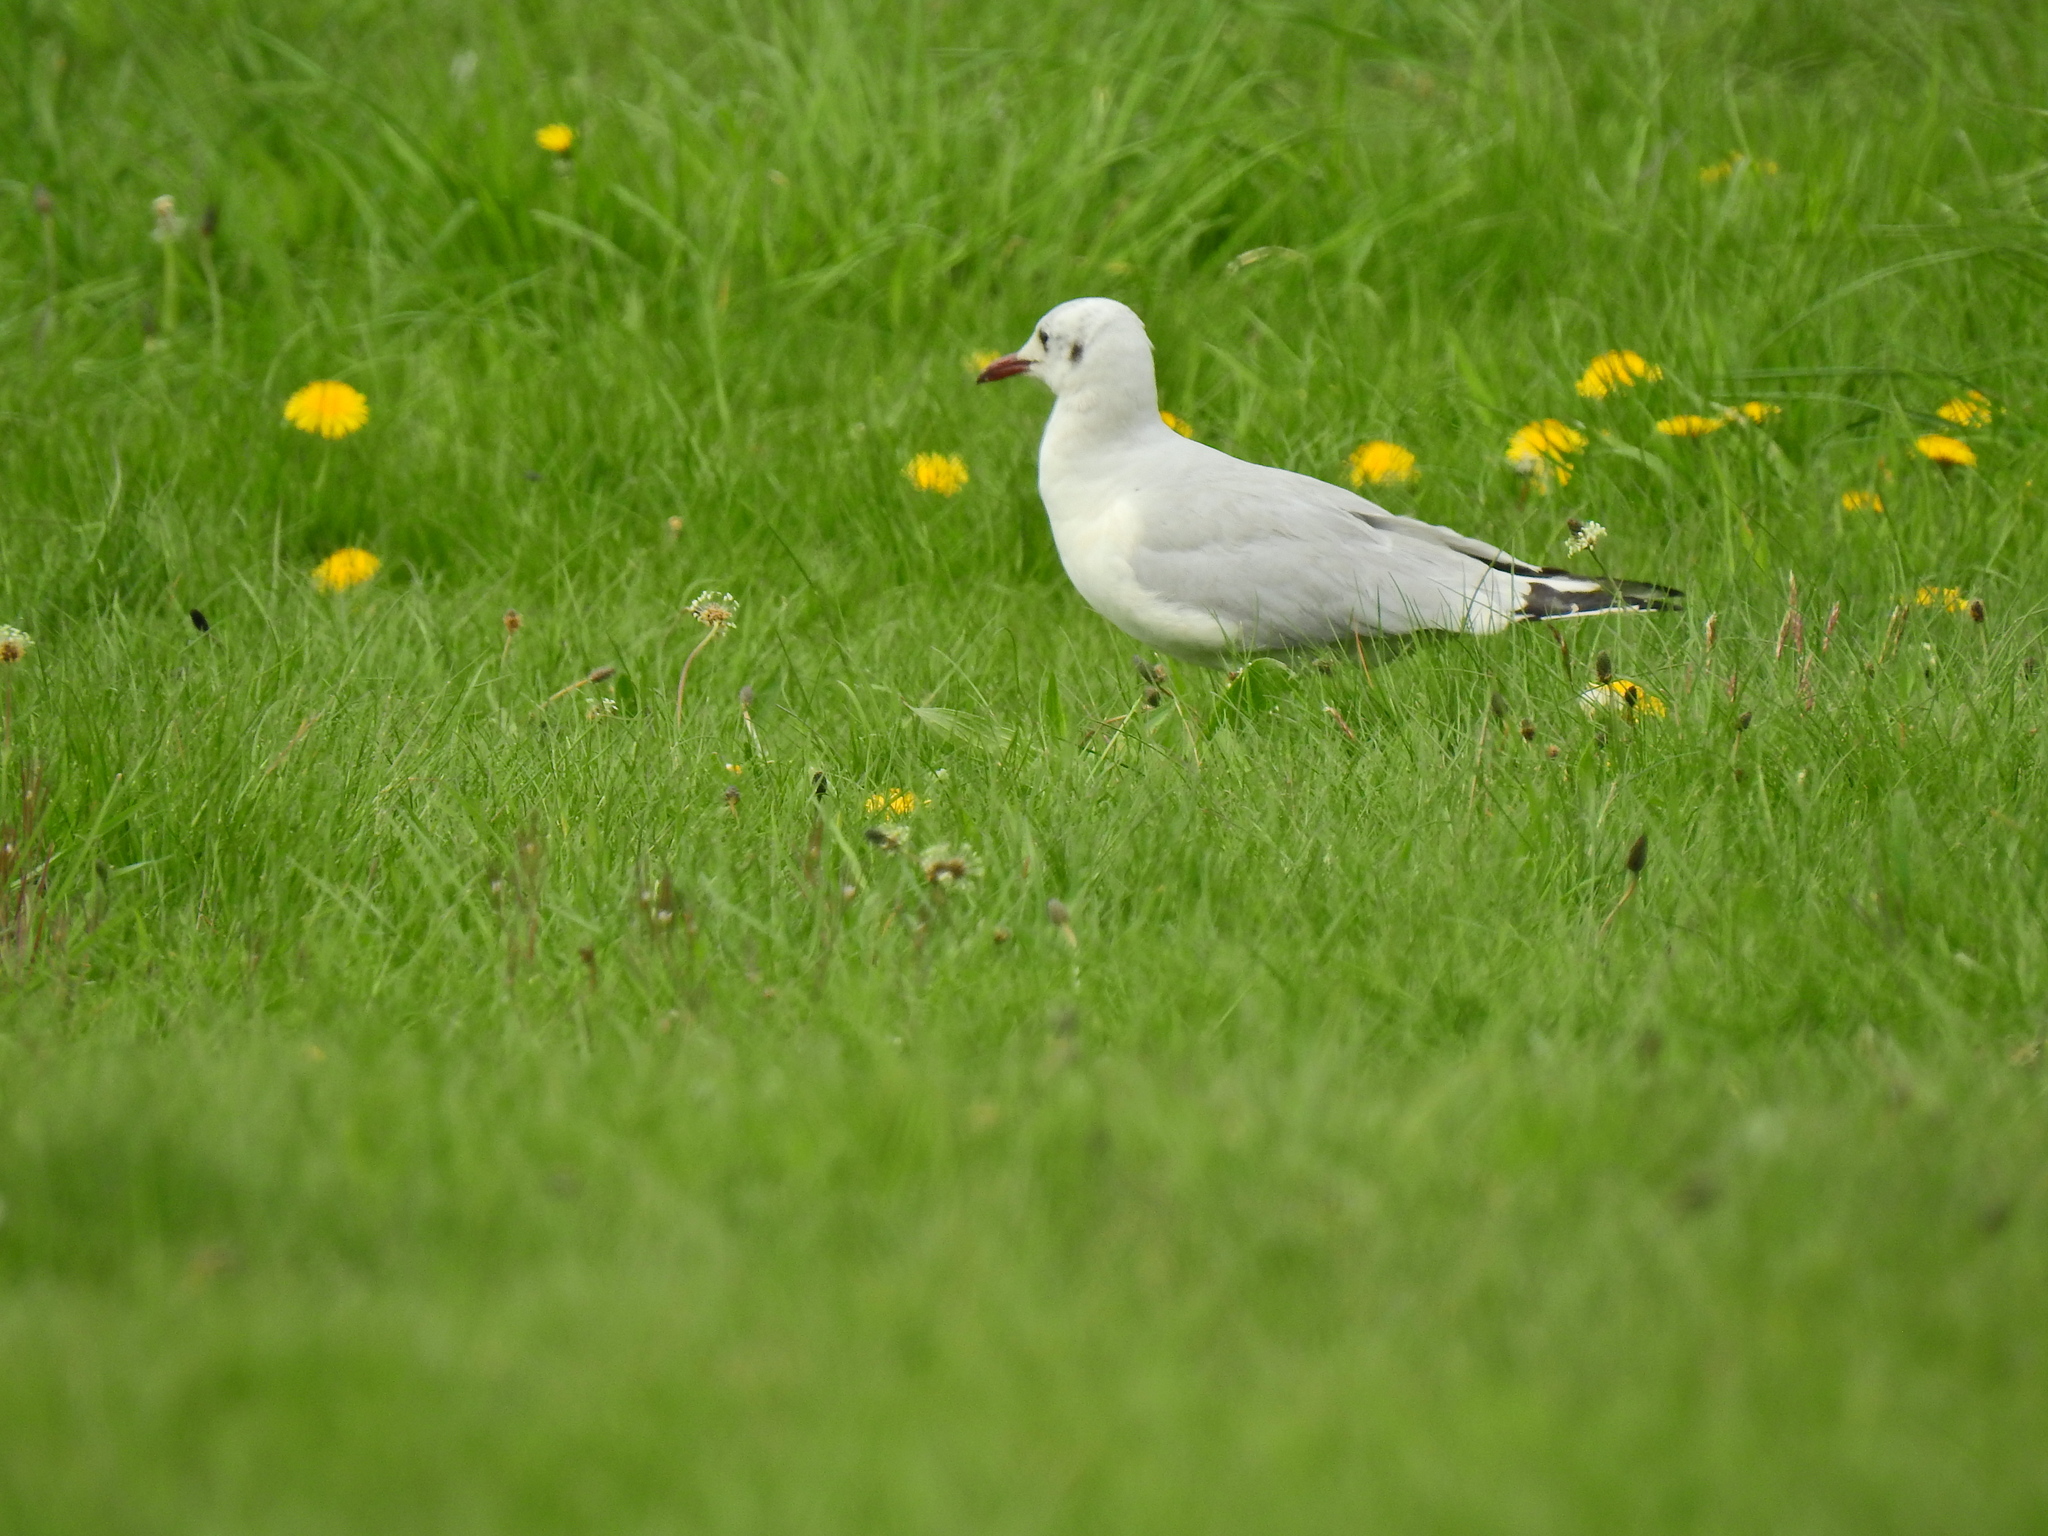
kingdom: Animalia
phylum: Chordata
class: Aves
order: Charadriiformes
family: Laridae
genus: Chroicocephalus
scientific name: Chroicocephalus ridibundus
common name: Black-headed gull
